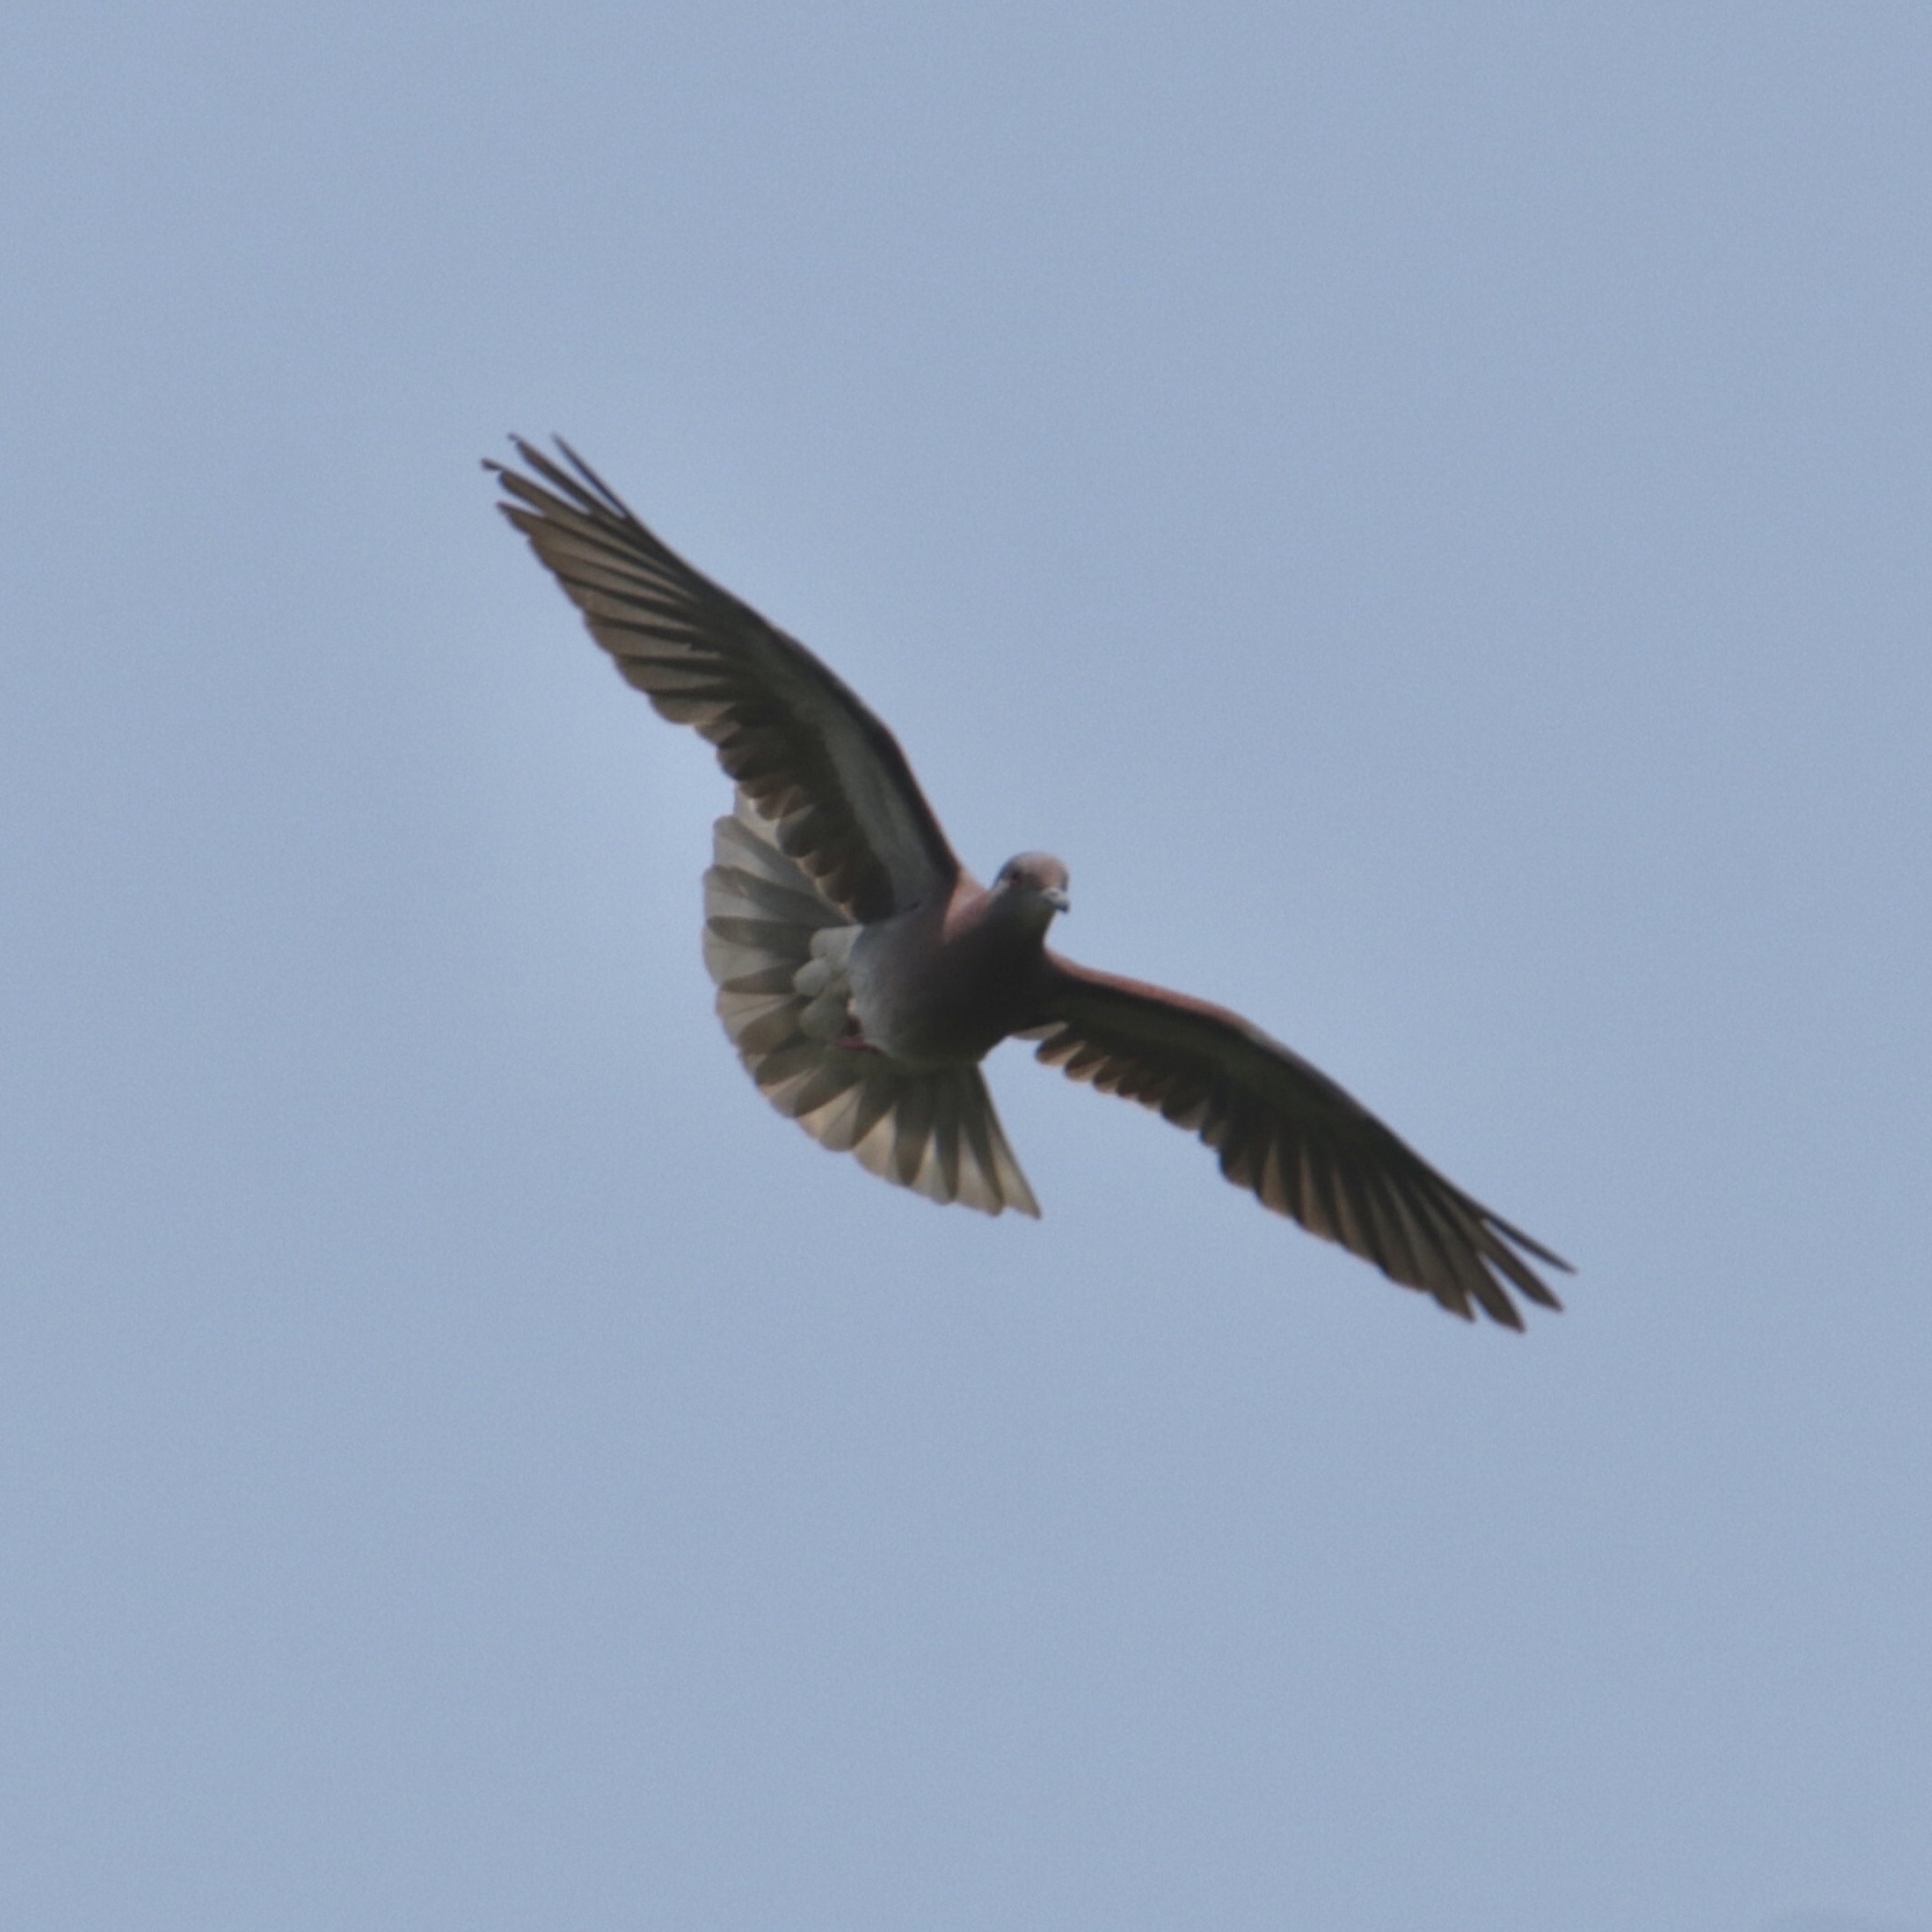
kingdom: Animalia
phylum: Chordata
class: Aves
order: Columbiformes
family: Columbidae
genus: Patagioenas
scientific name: Patagioenas cayennensis
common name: Pale-vented pigeon
